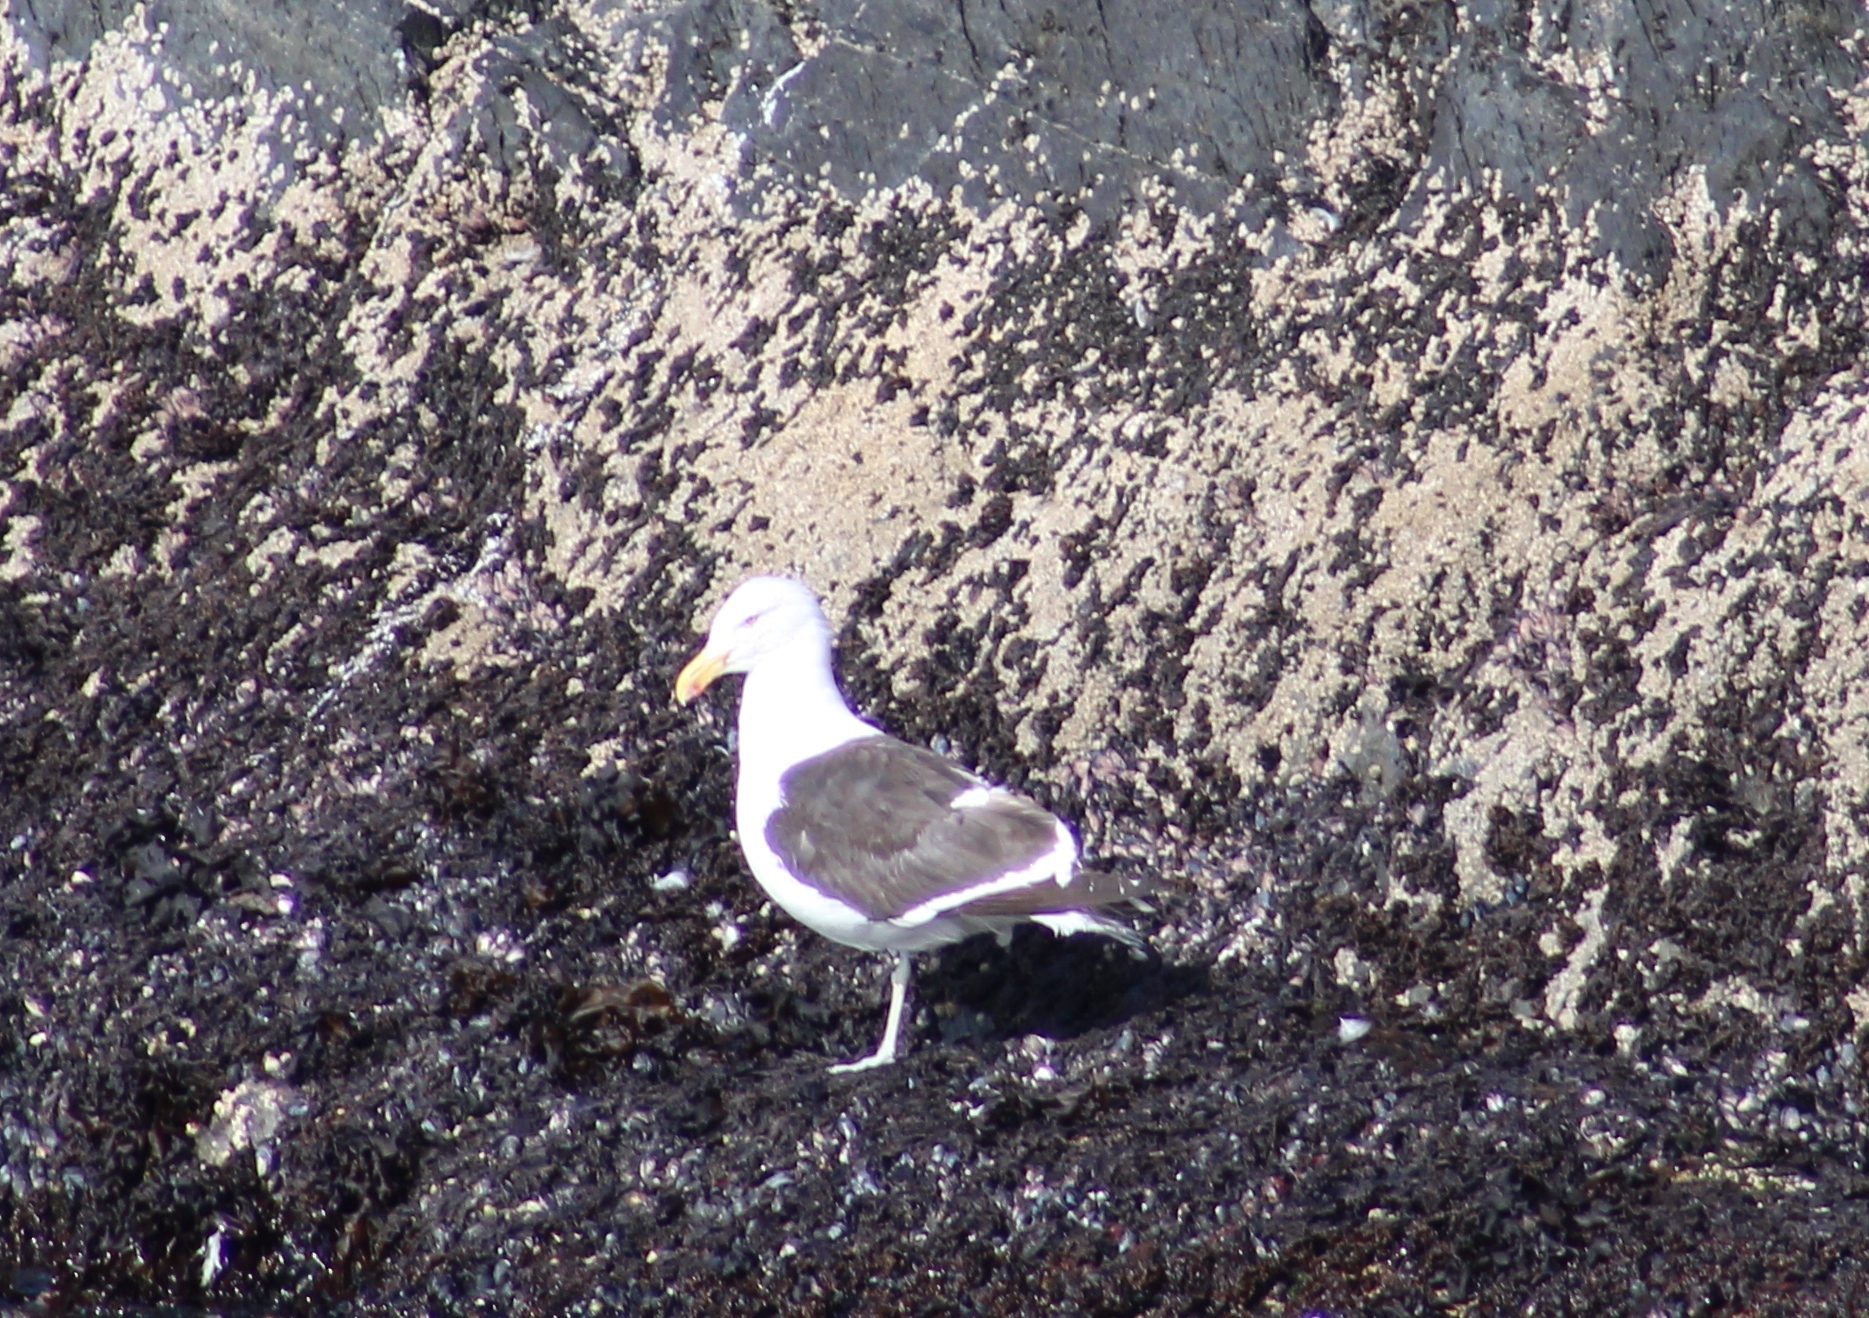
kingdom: Animalia
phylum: Chordata
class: Aves
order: Charadriiformes
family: Laridae
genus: Larus
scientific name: Larus dominicanus
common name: Kelp gull
